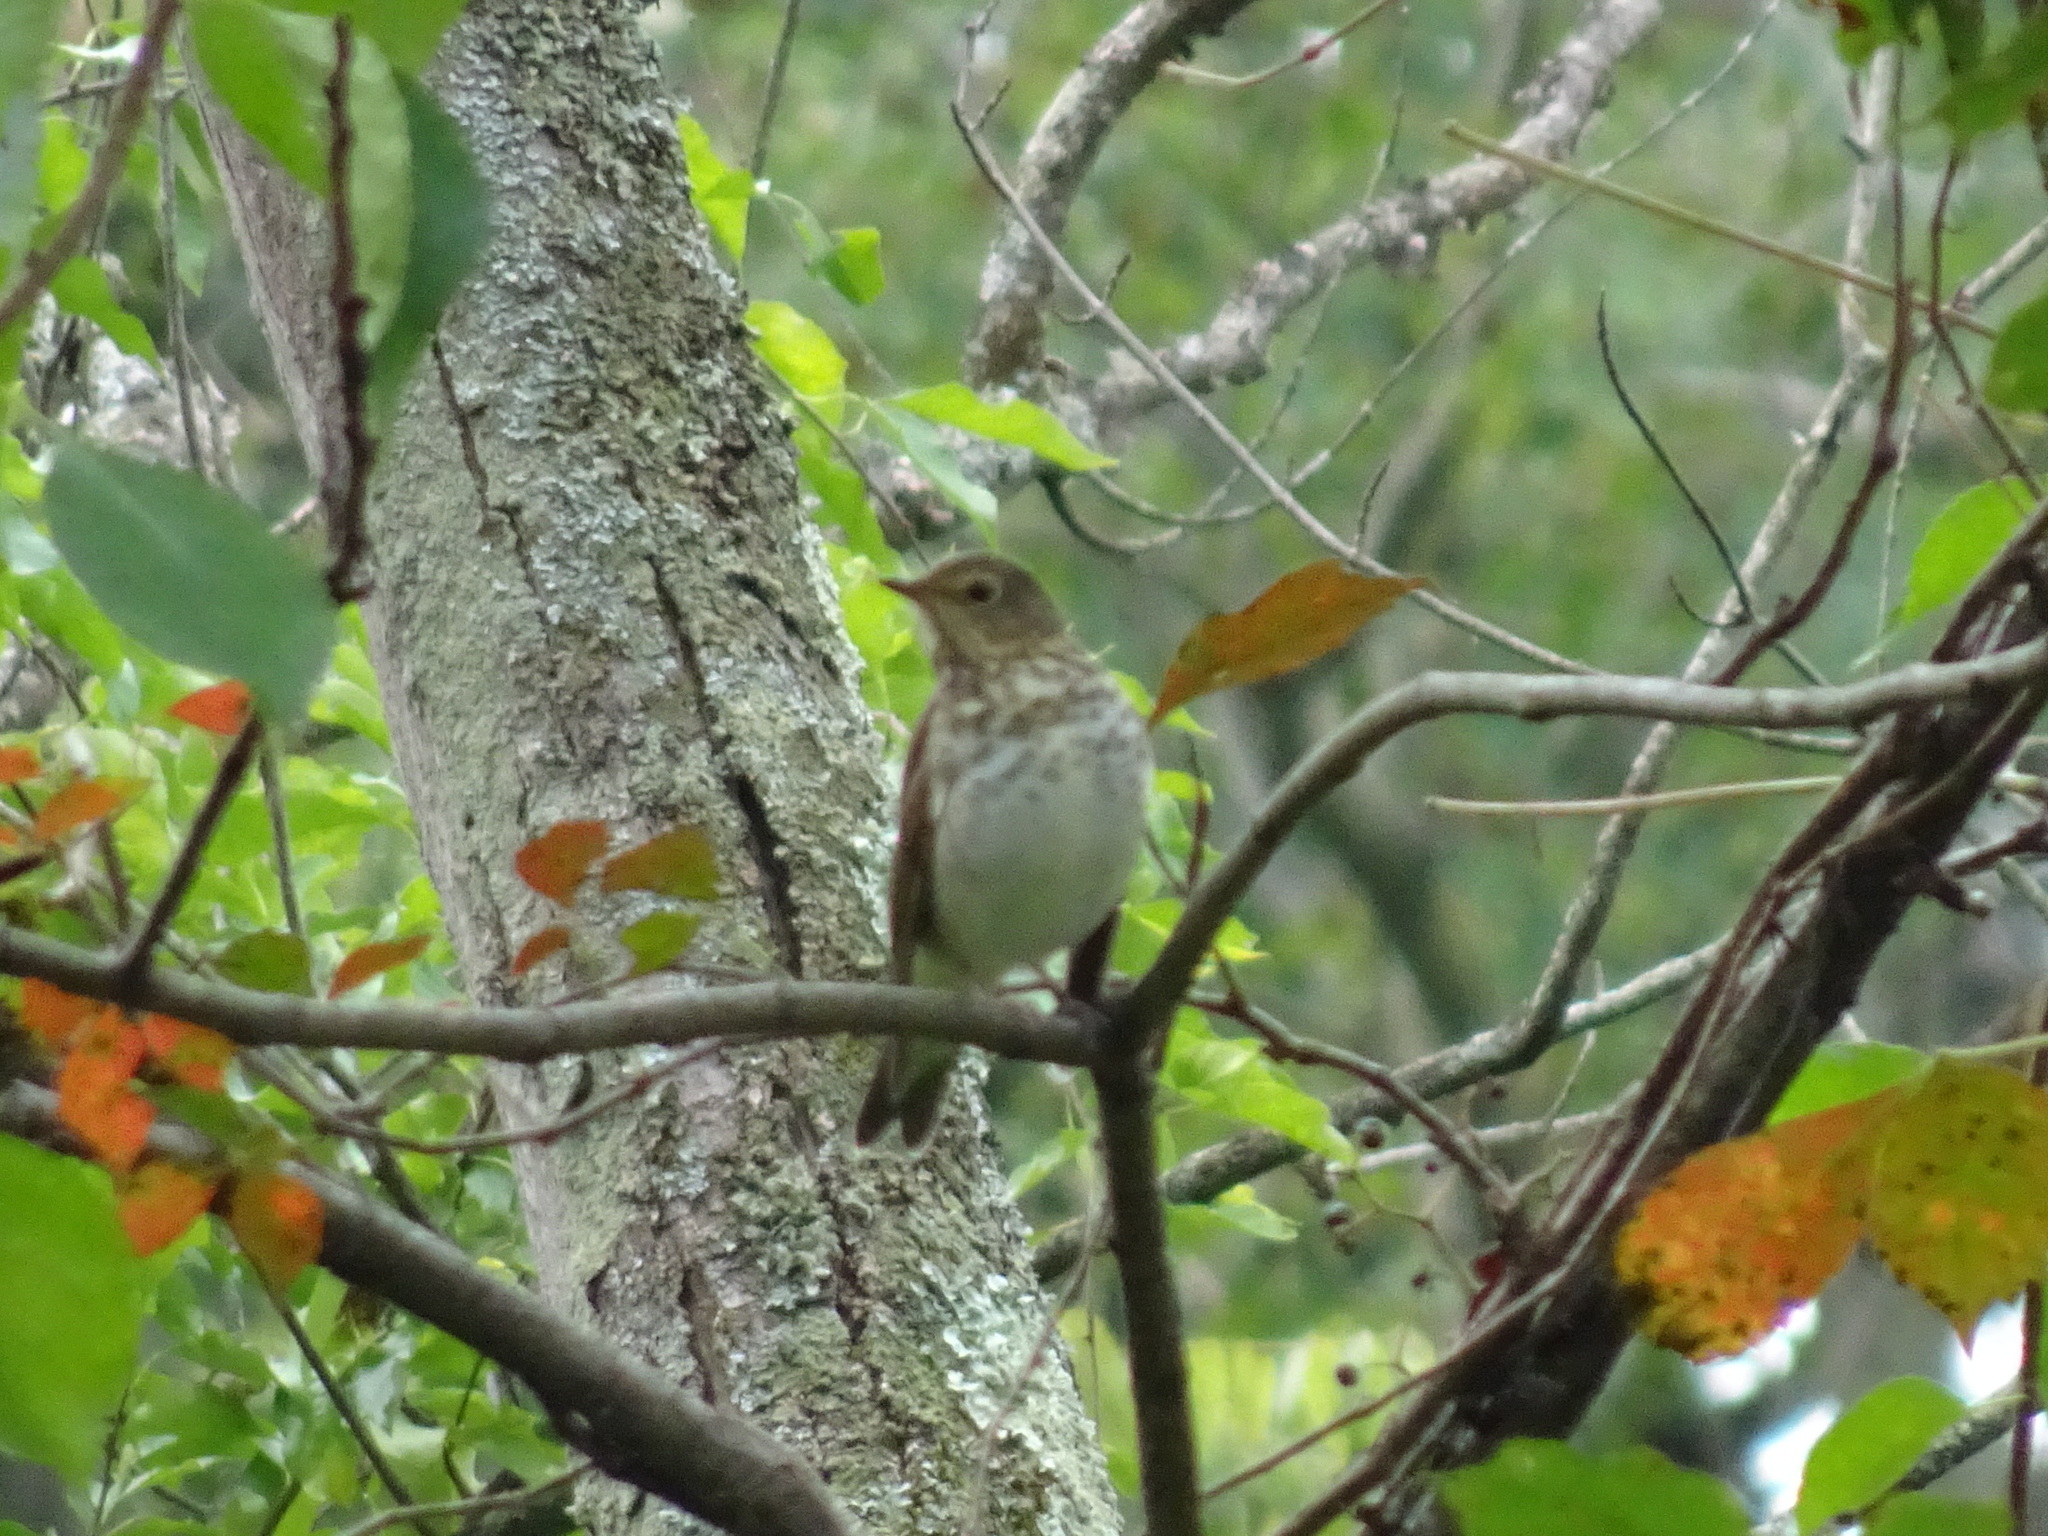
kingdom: Animalia
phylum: Chordata
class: Aves
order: Passeriformes
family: Turdidae
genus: Catharus
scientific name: Catharus ustulatus
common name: Swainson's thrush
